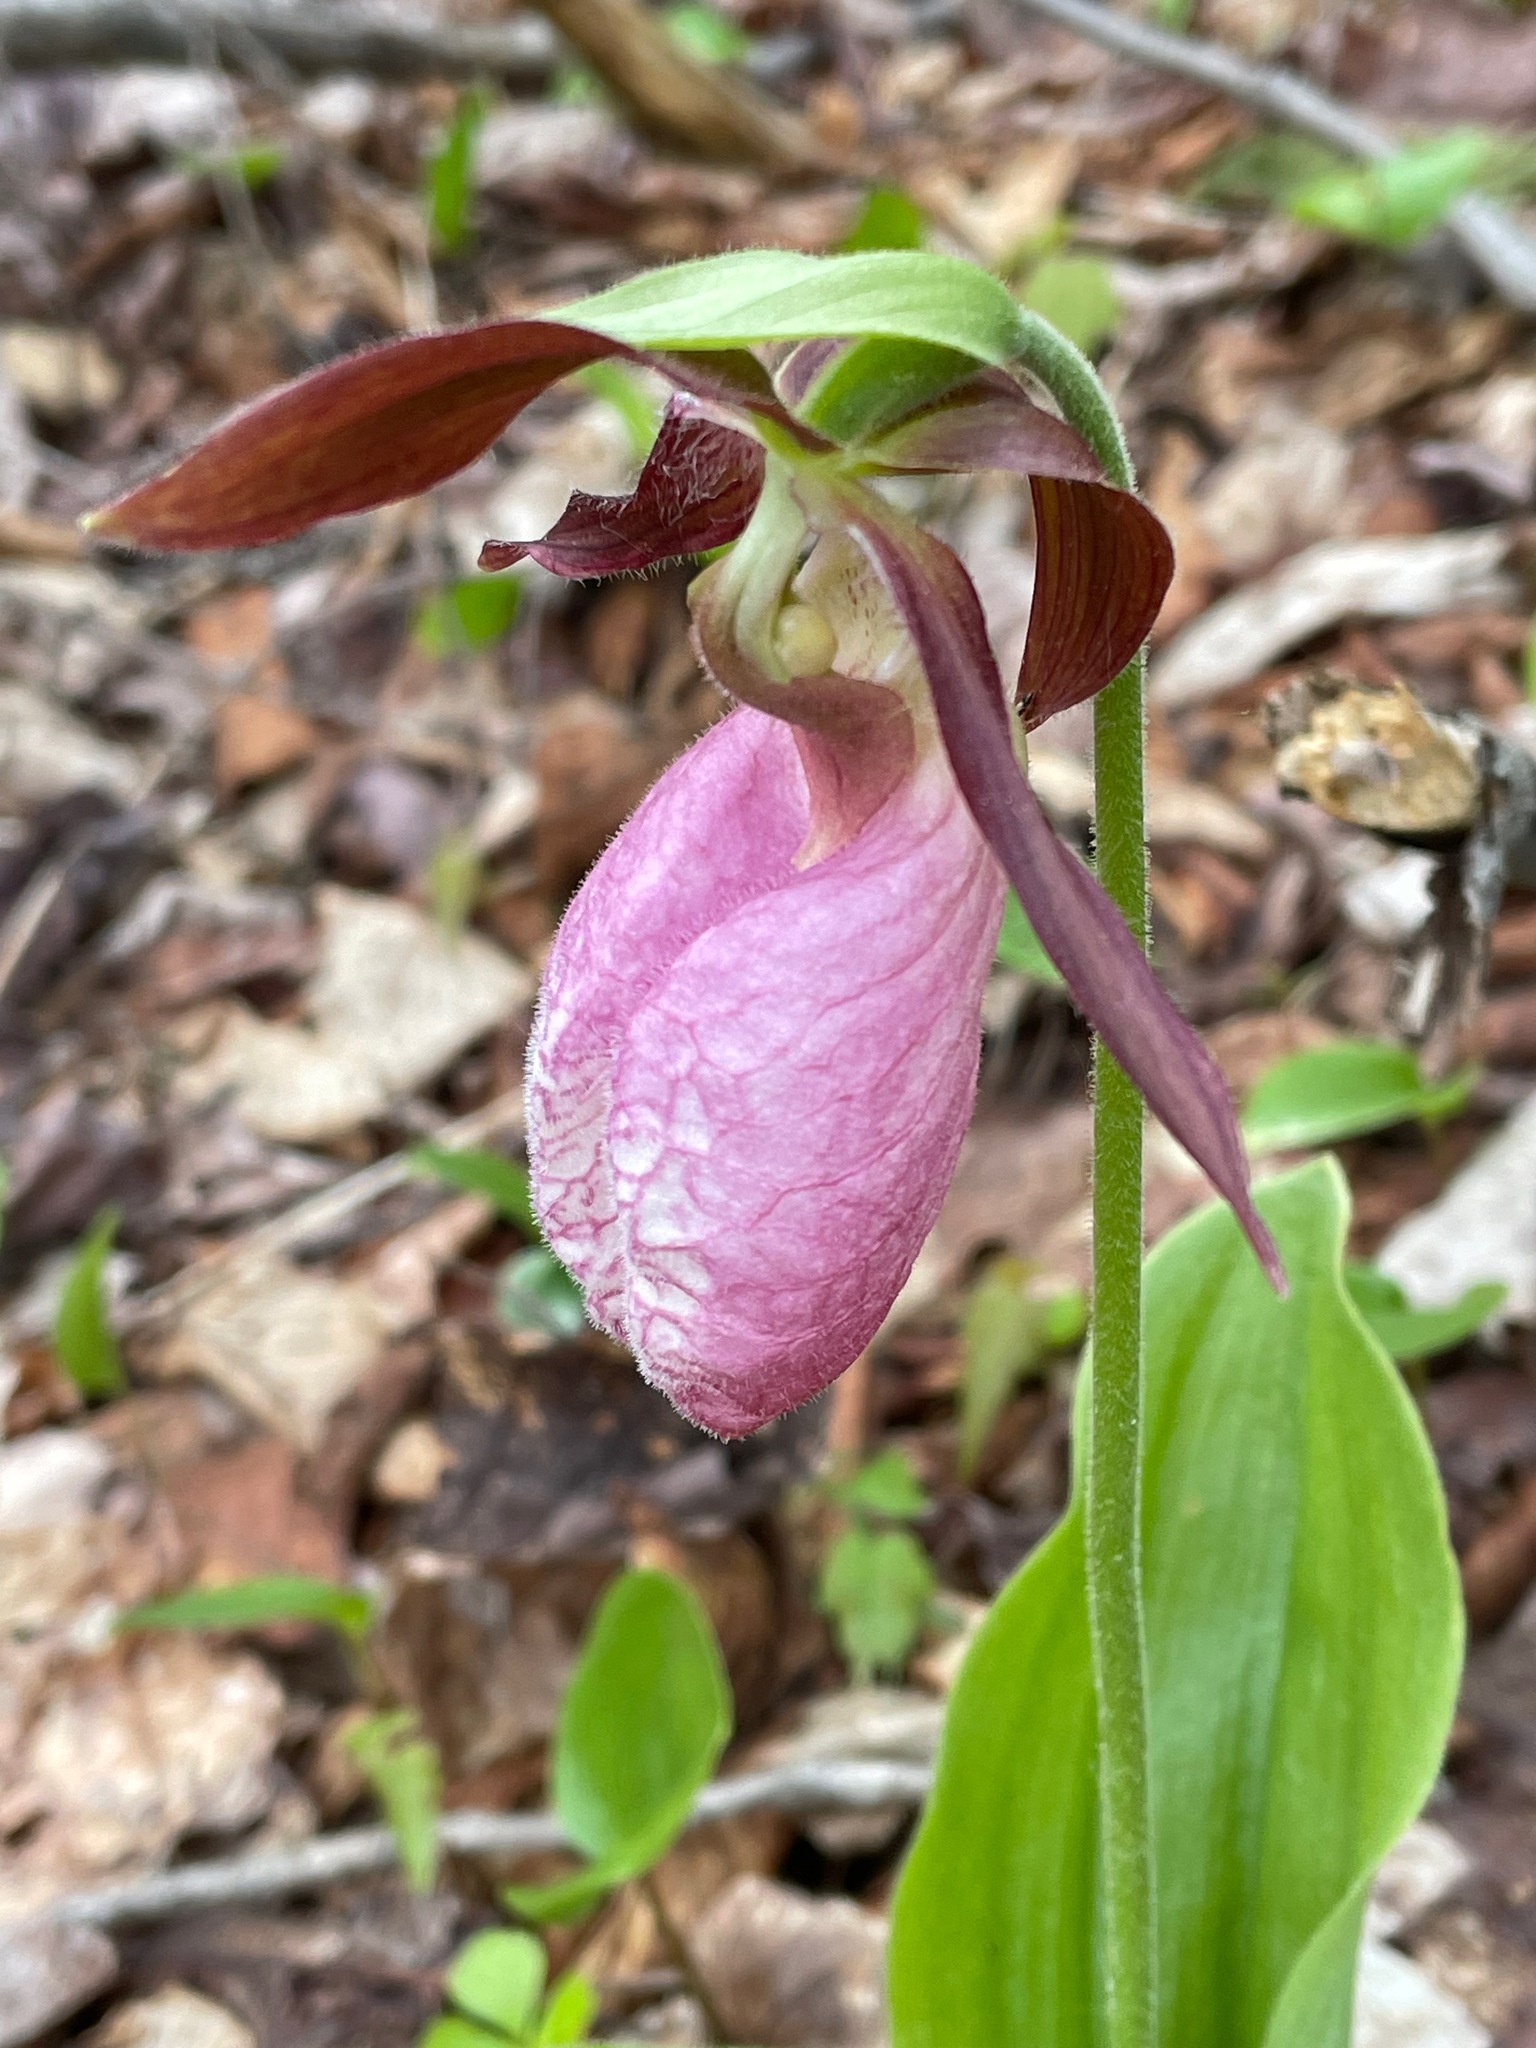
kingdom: Plantae
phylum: Tracheophyta
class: Liliopsida
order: Asparagales
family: Orchidaceae
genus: Cypripedium
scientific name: Cypripedium acaule
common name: Pink lady's-slipper
